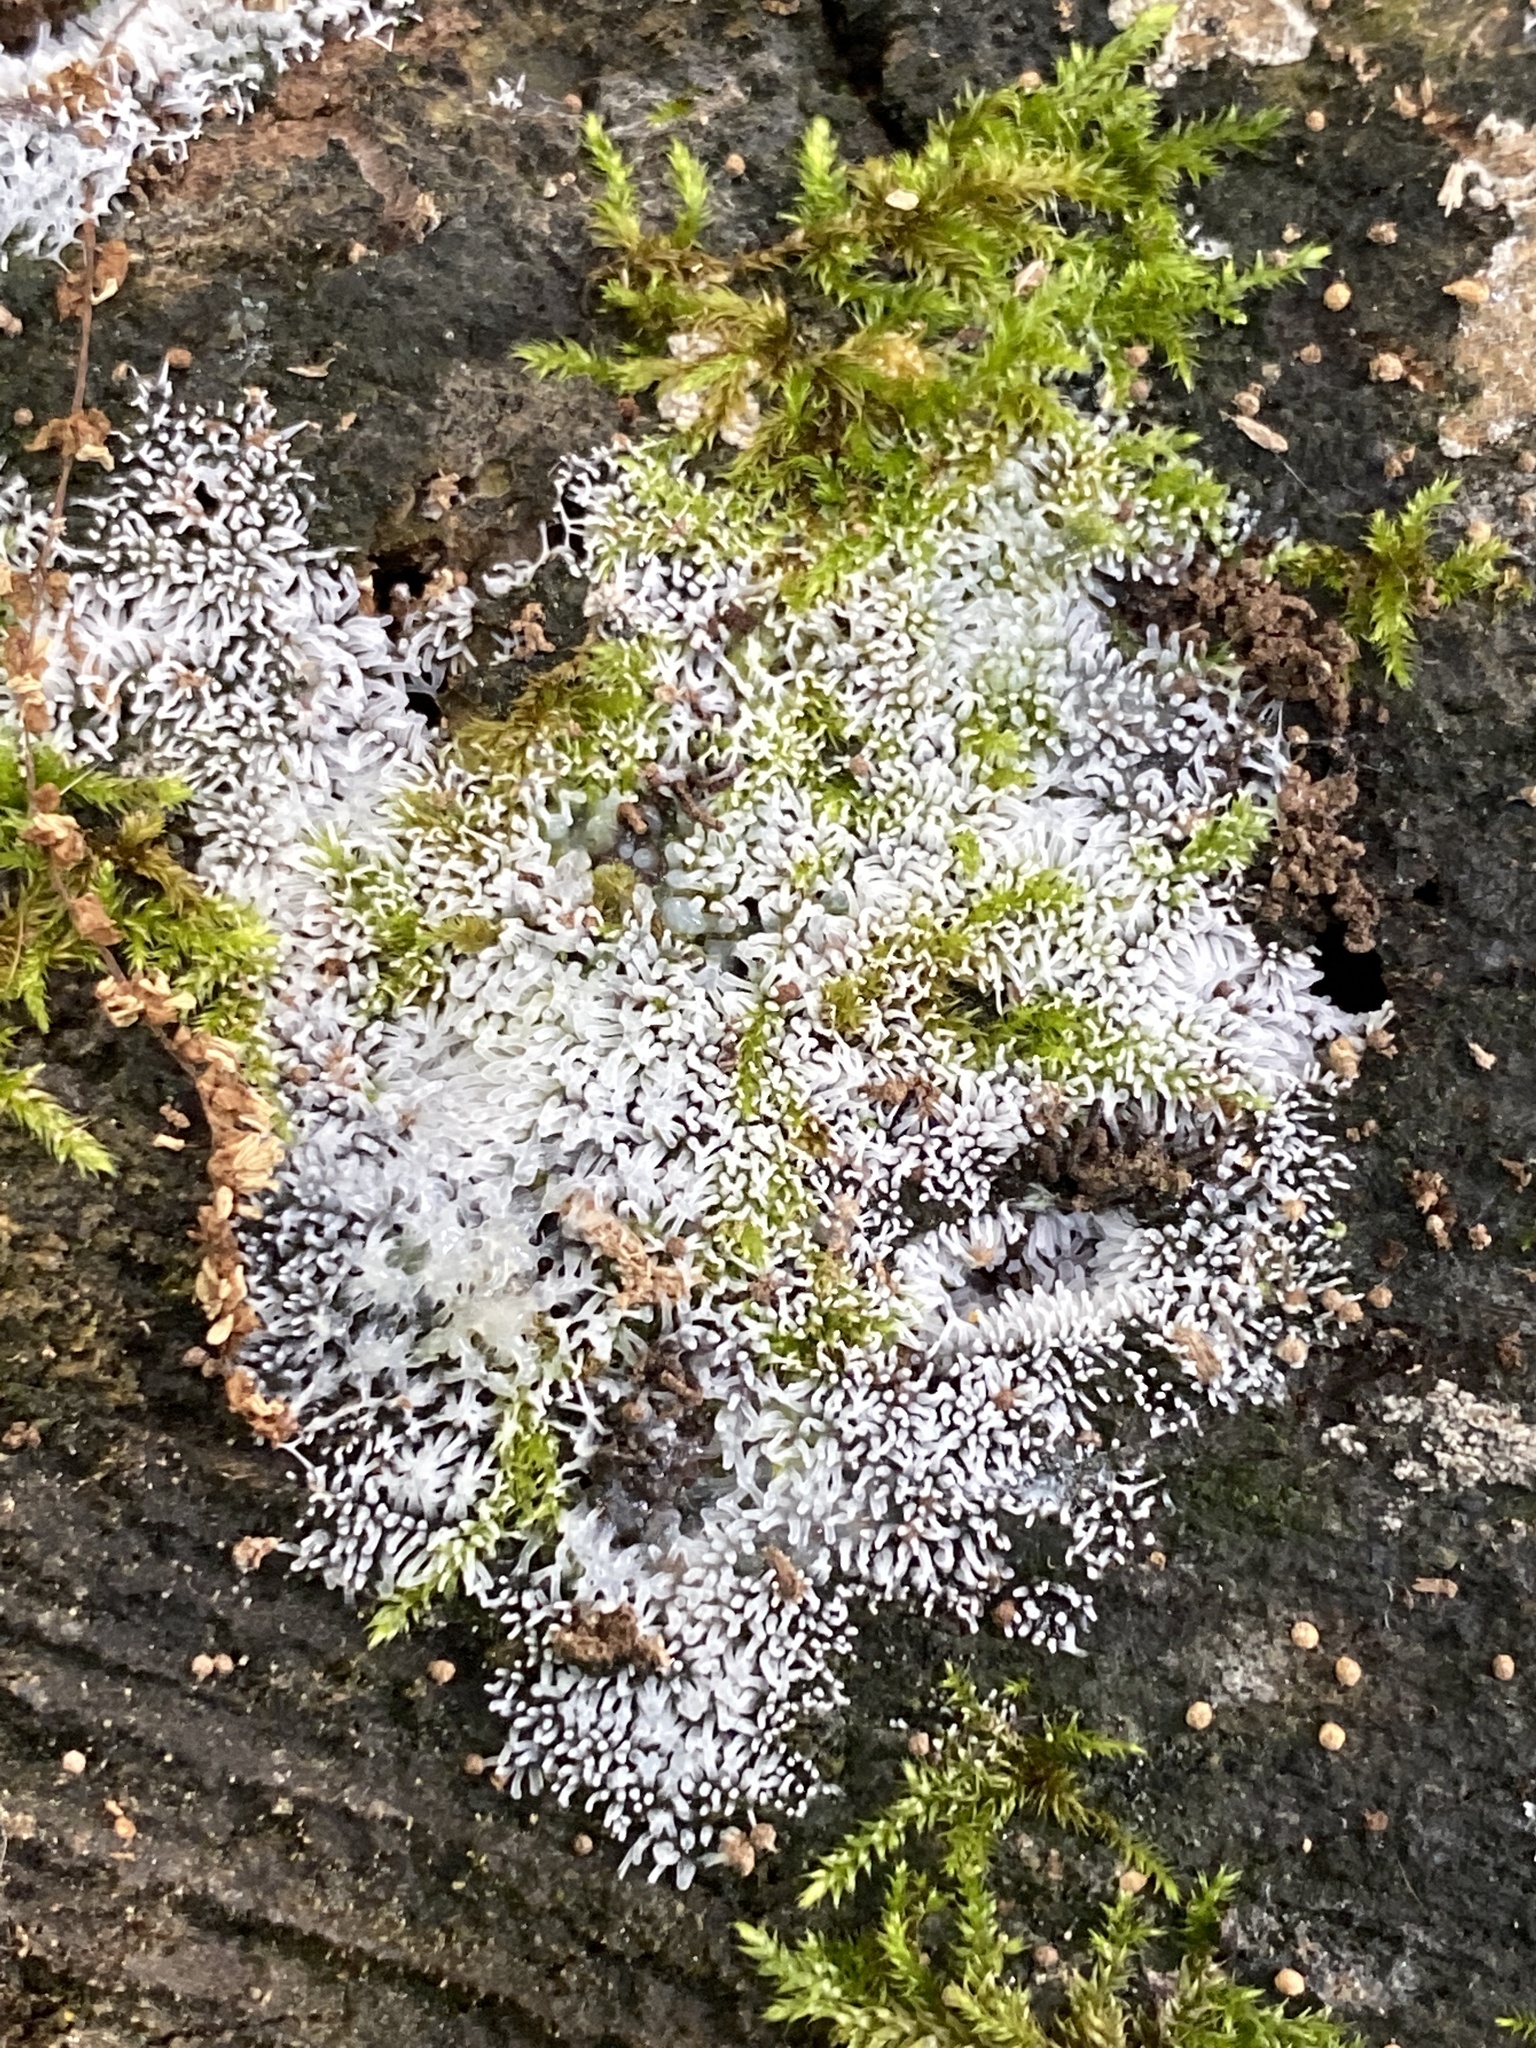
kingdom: Protozoa
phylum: Mycetozoa
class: Protosteliomycetes
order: Ceratiomyxales
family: Ceratiomyxaceae
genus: Ceratiomyxa
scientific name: Ceratiomyxa fruticulosa
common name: Honeycomb coral slime mold
